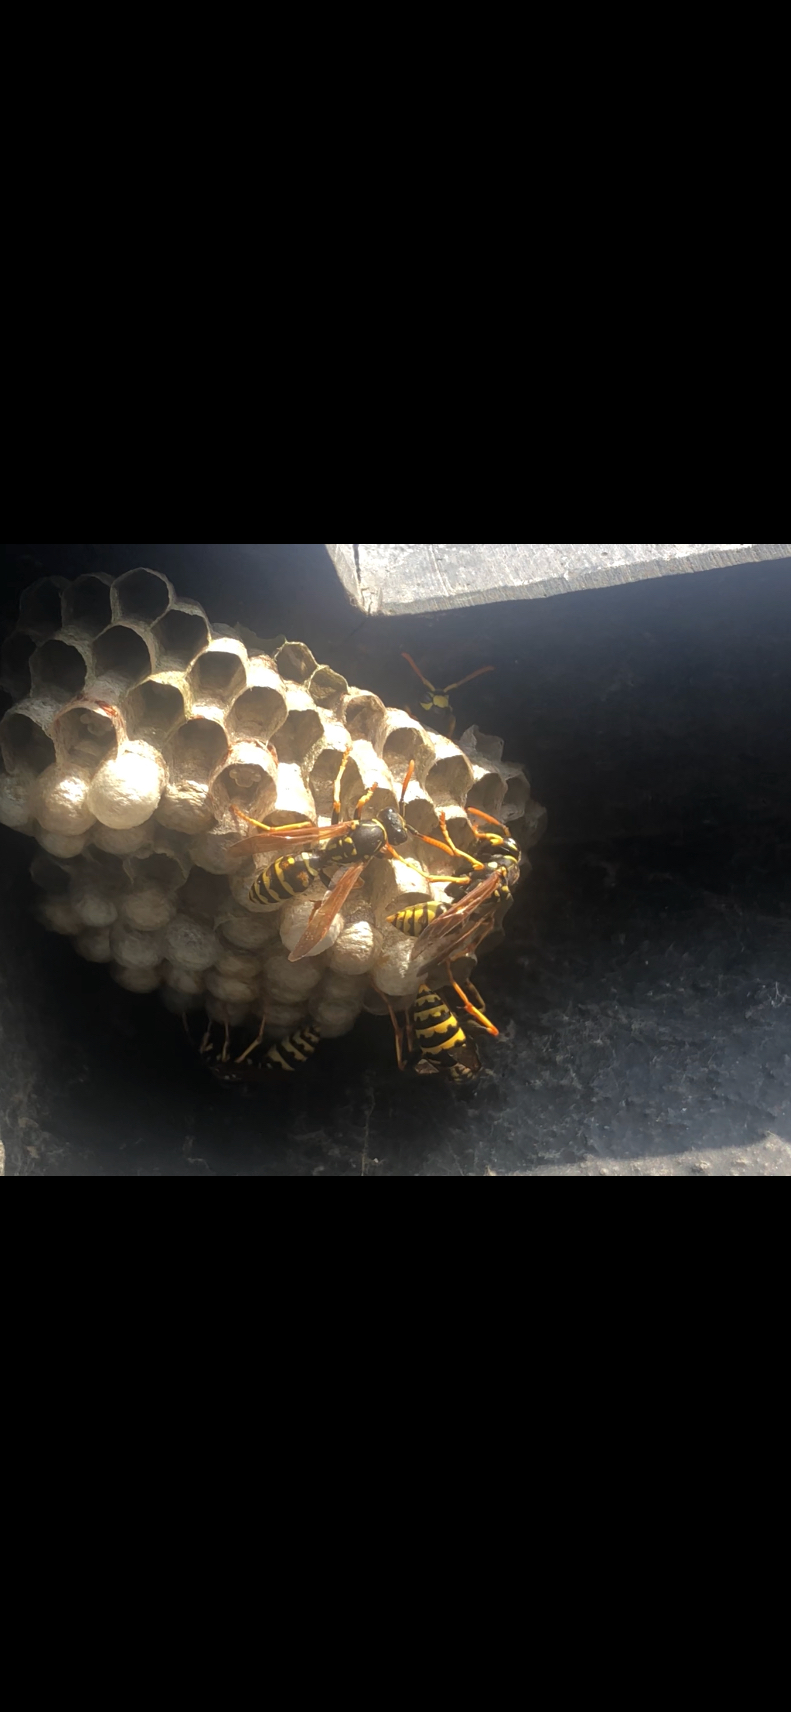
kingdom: Animalia
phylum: Arthropoda
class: Insecta
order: Hymenoptera
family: Eumenidae
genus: Polistes
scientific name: Polistes dominula
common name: Paper wasp
